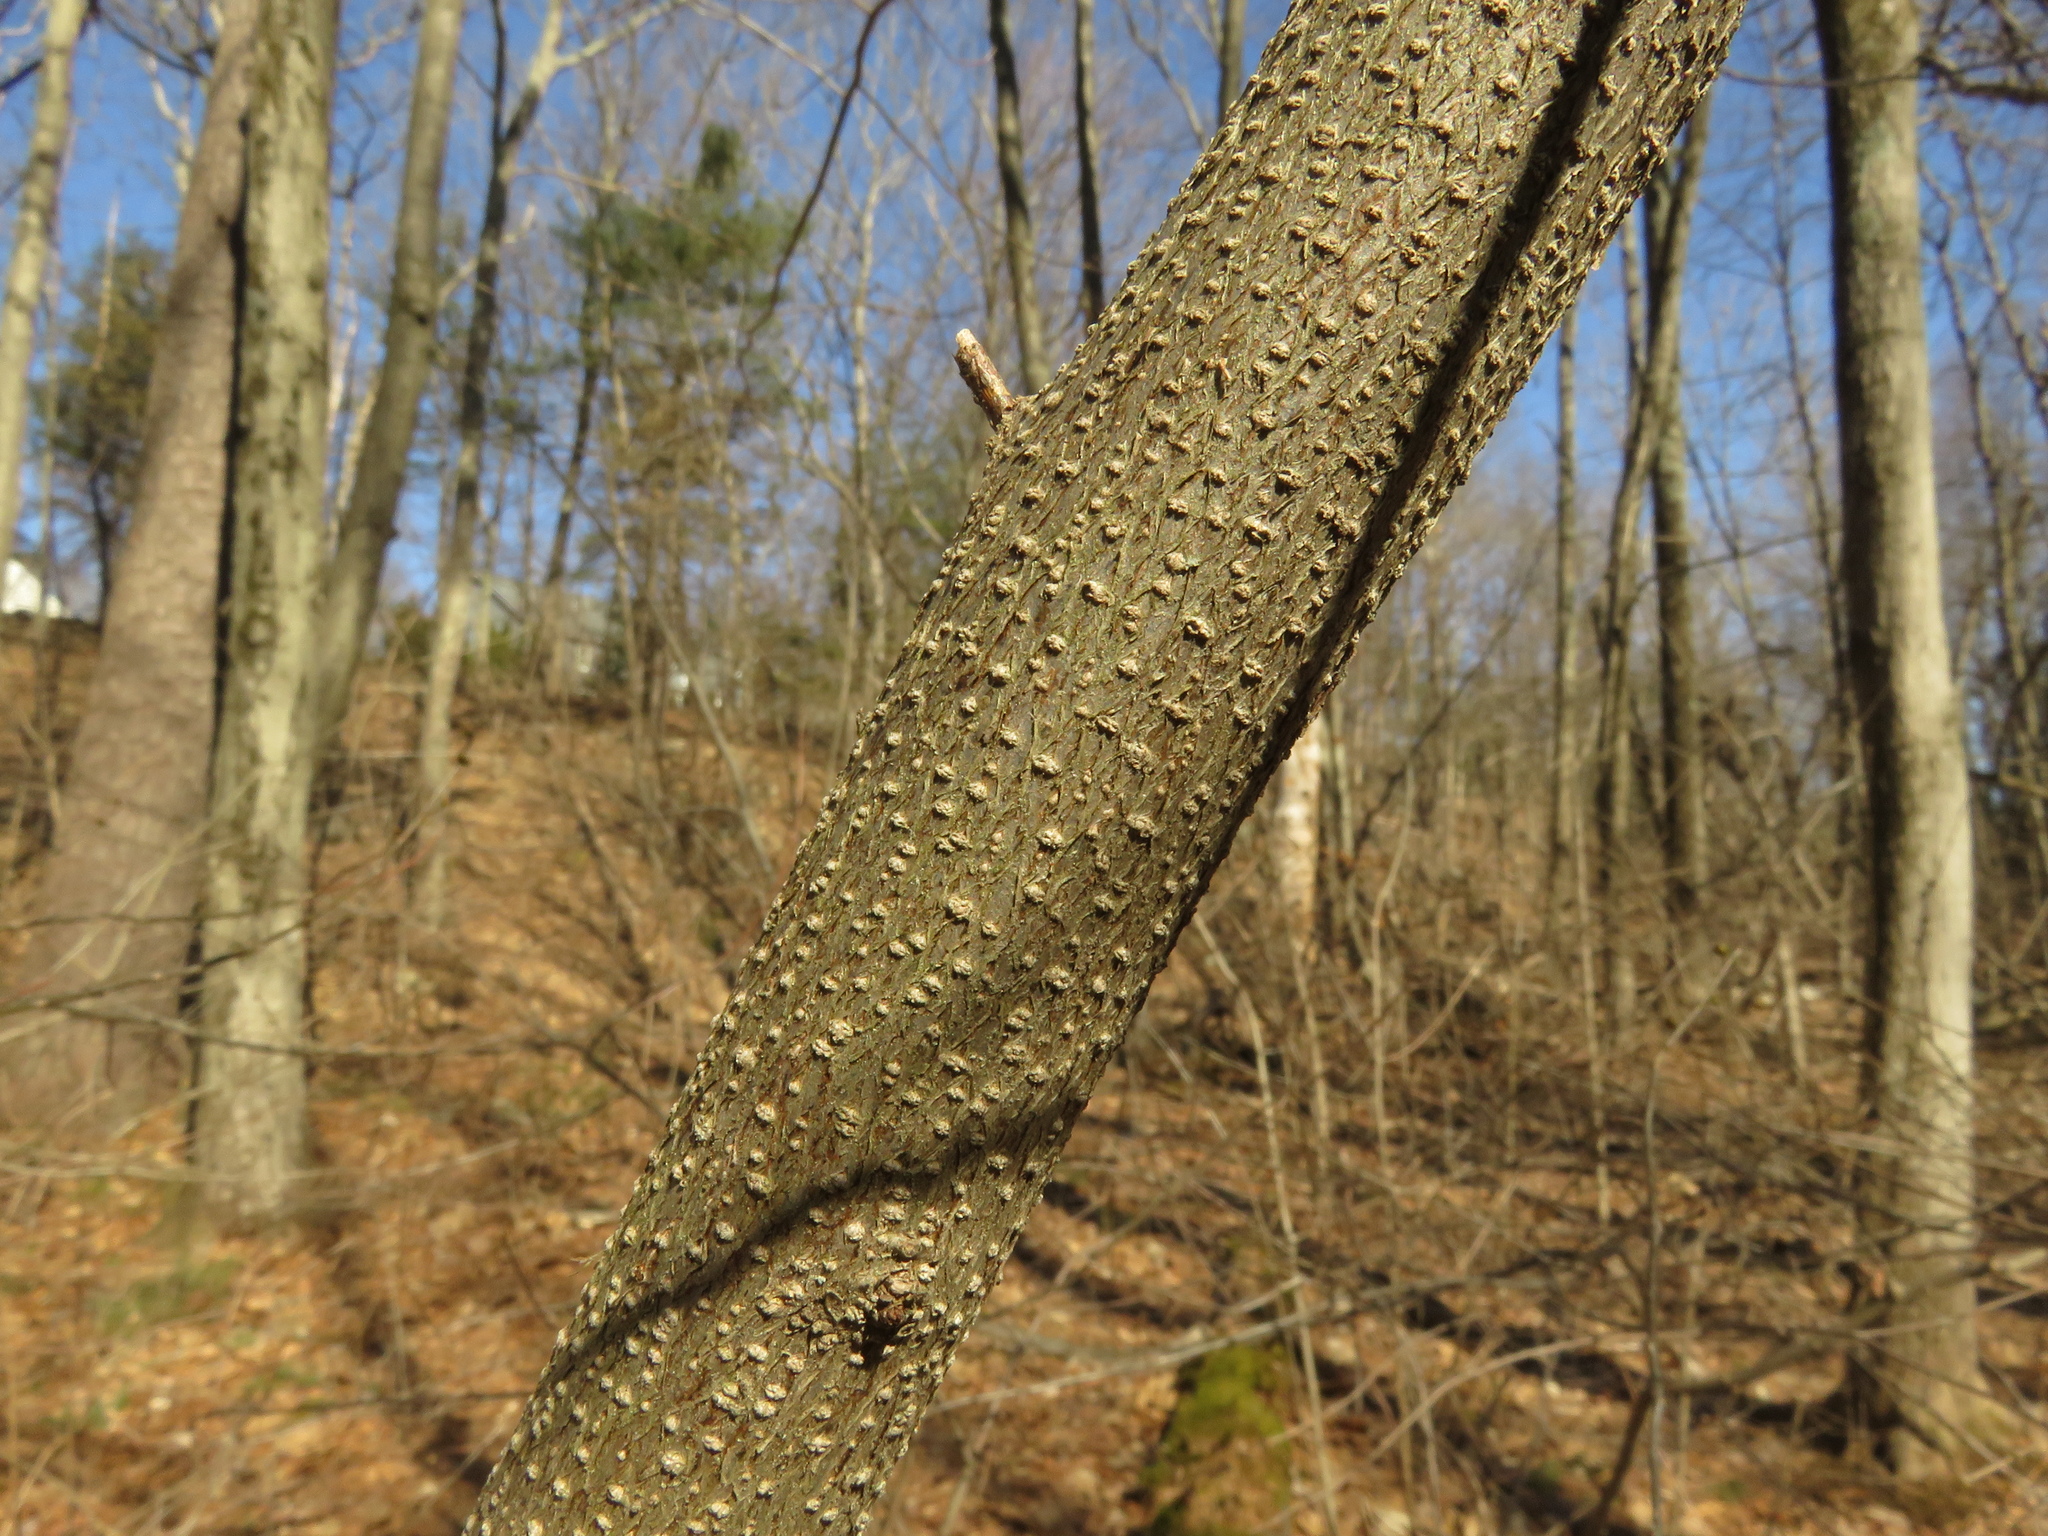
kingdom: Plantae
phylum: Tracheophyta
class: Magnoliopsida
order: Laurales
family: Lauraceae
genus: Lindera
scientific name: Lindera benzoin
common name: Spicebush
